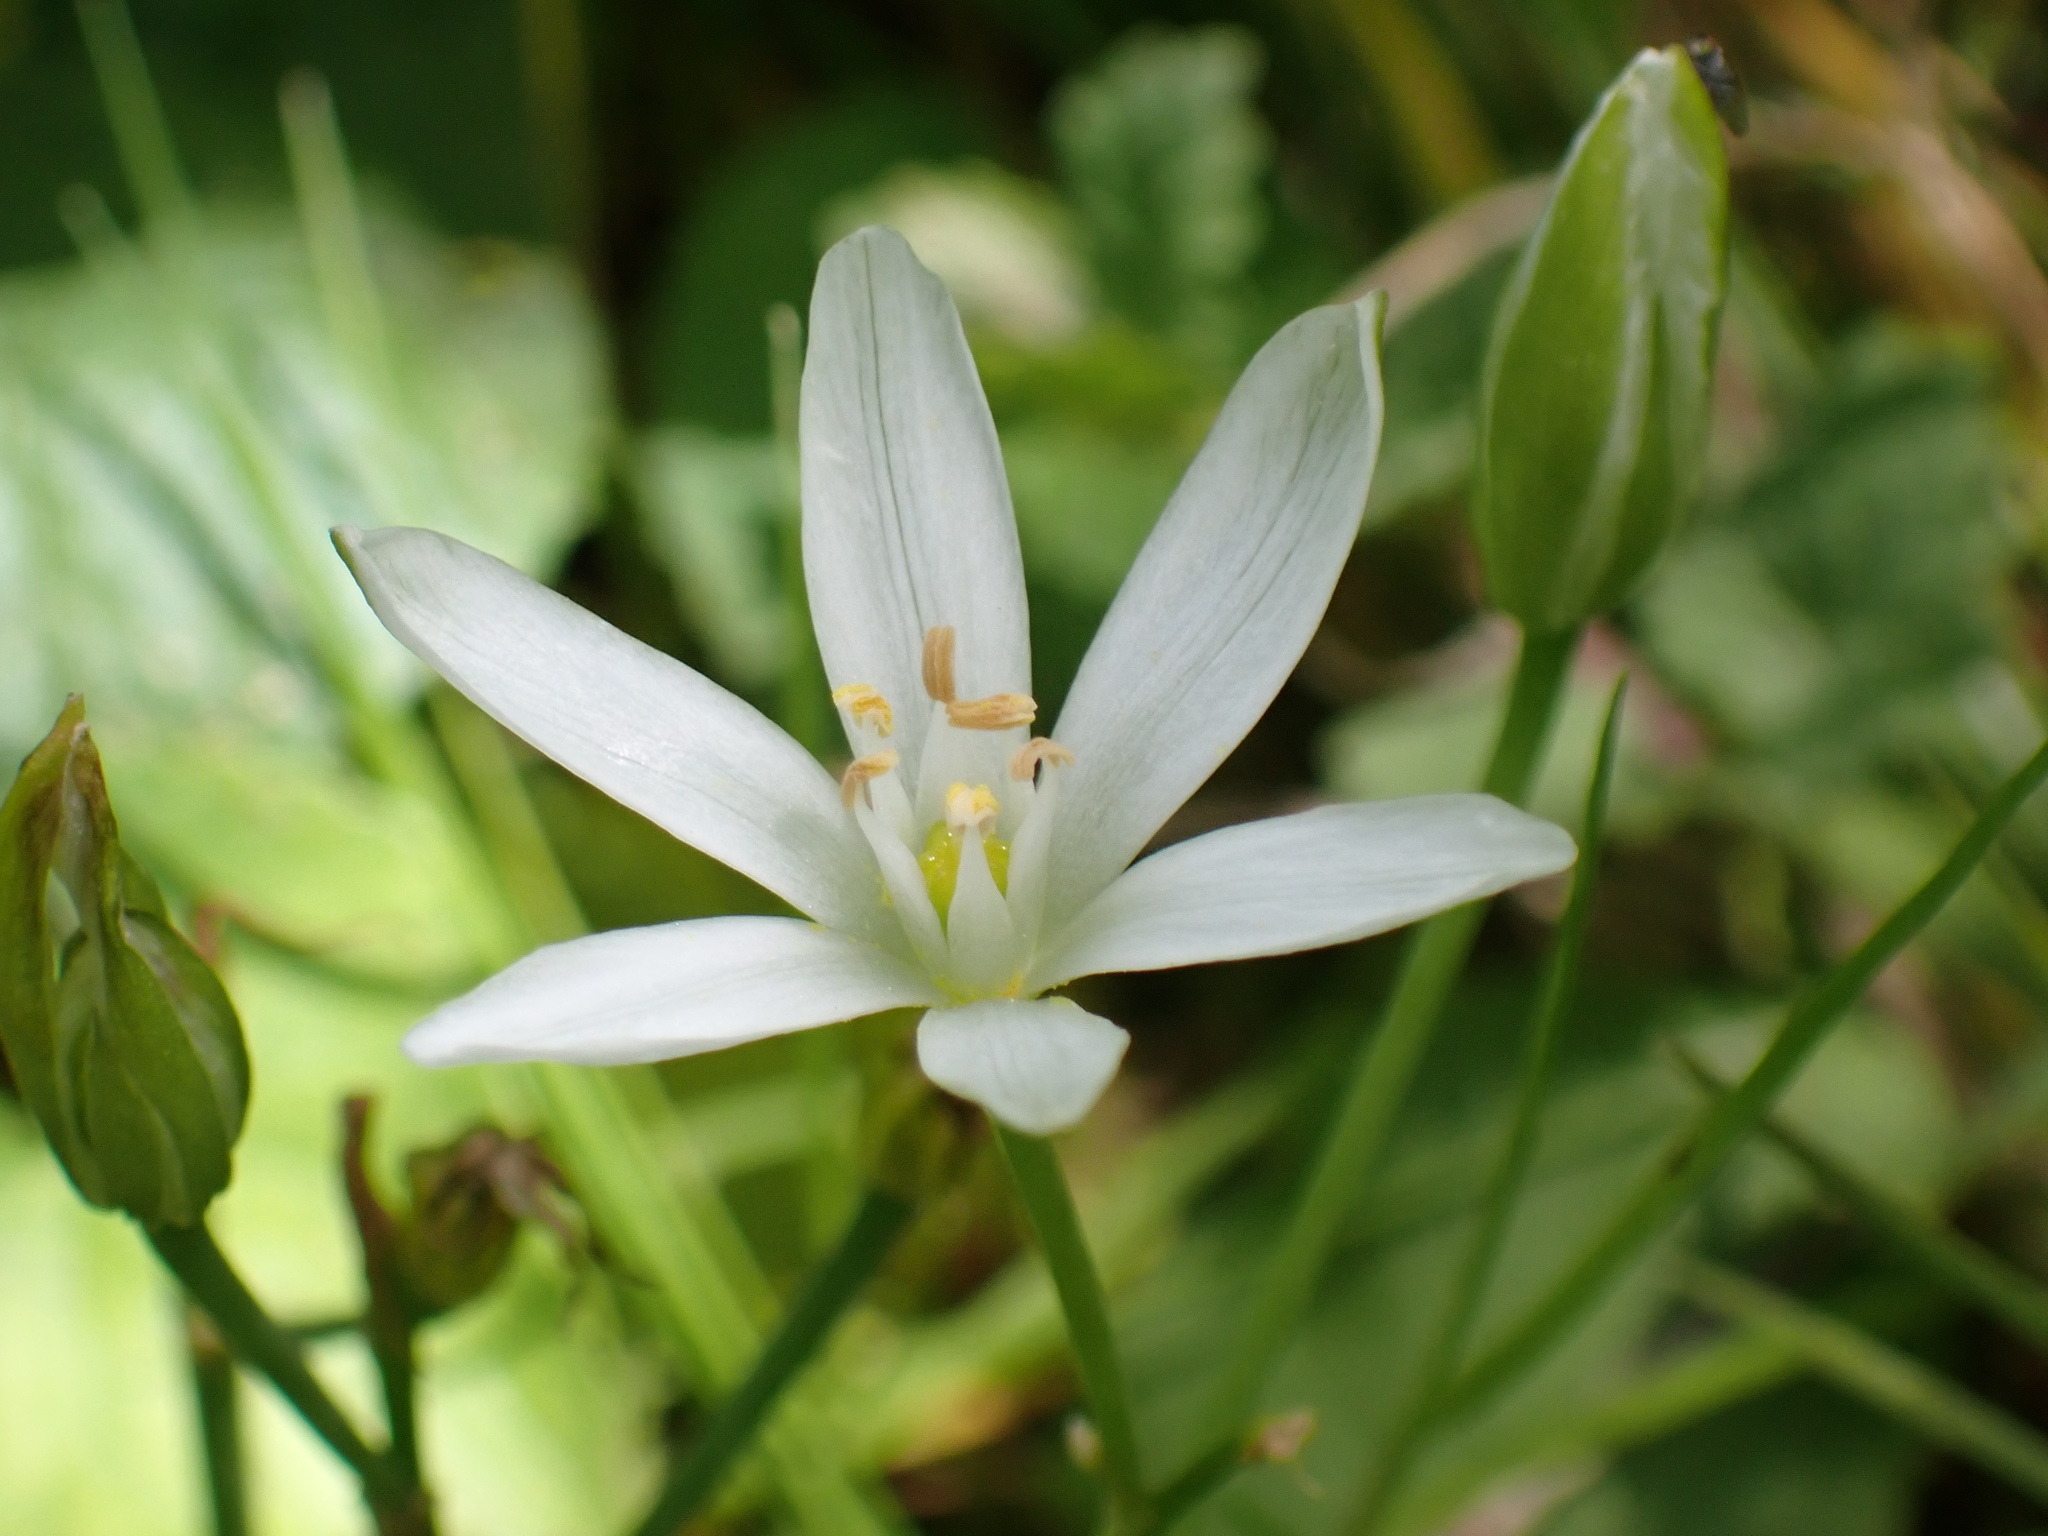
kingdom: Plantae
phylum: Tracheophyta
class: Liliopsida
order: Asparagales
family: Asparagaceae
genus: Ornithogalum
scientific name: Ornithogalum umbellatum
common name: Garden star-of-bethlehem
